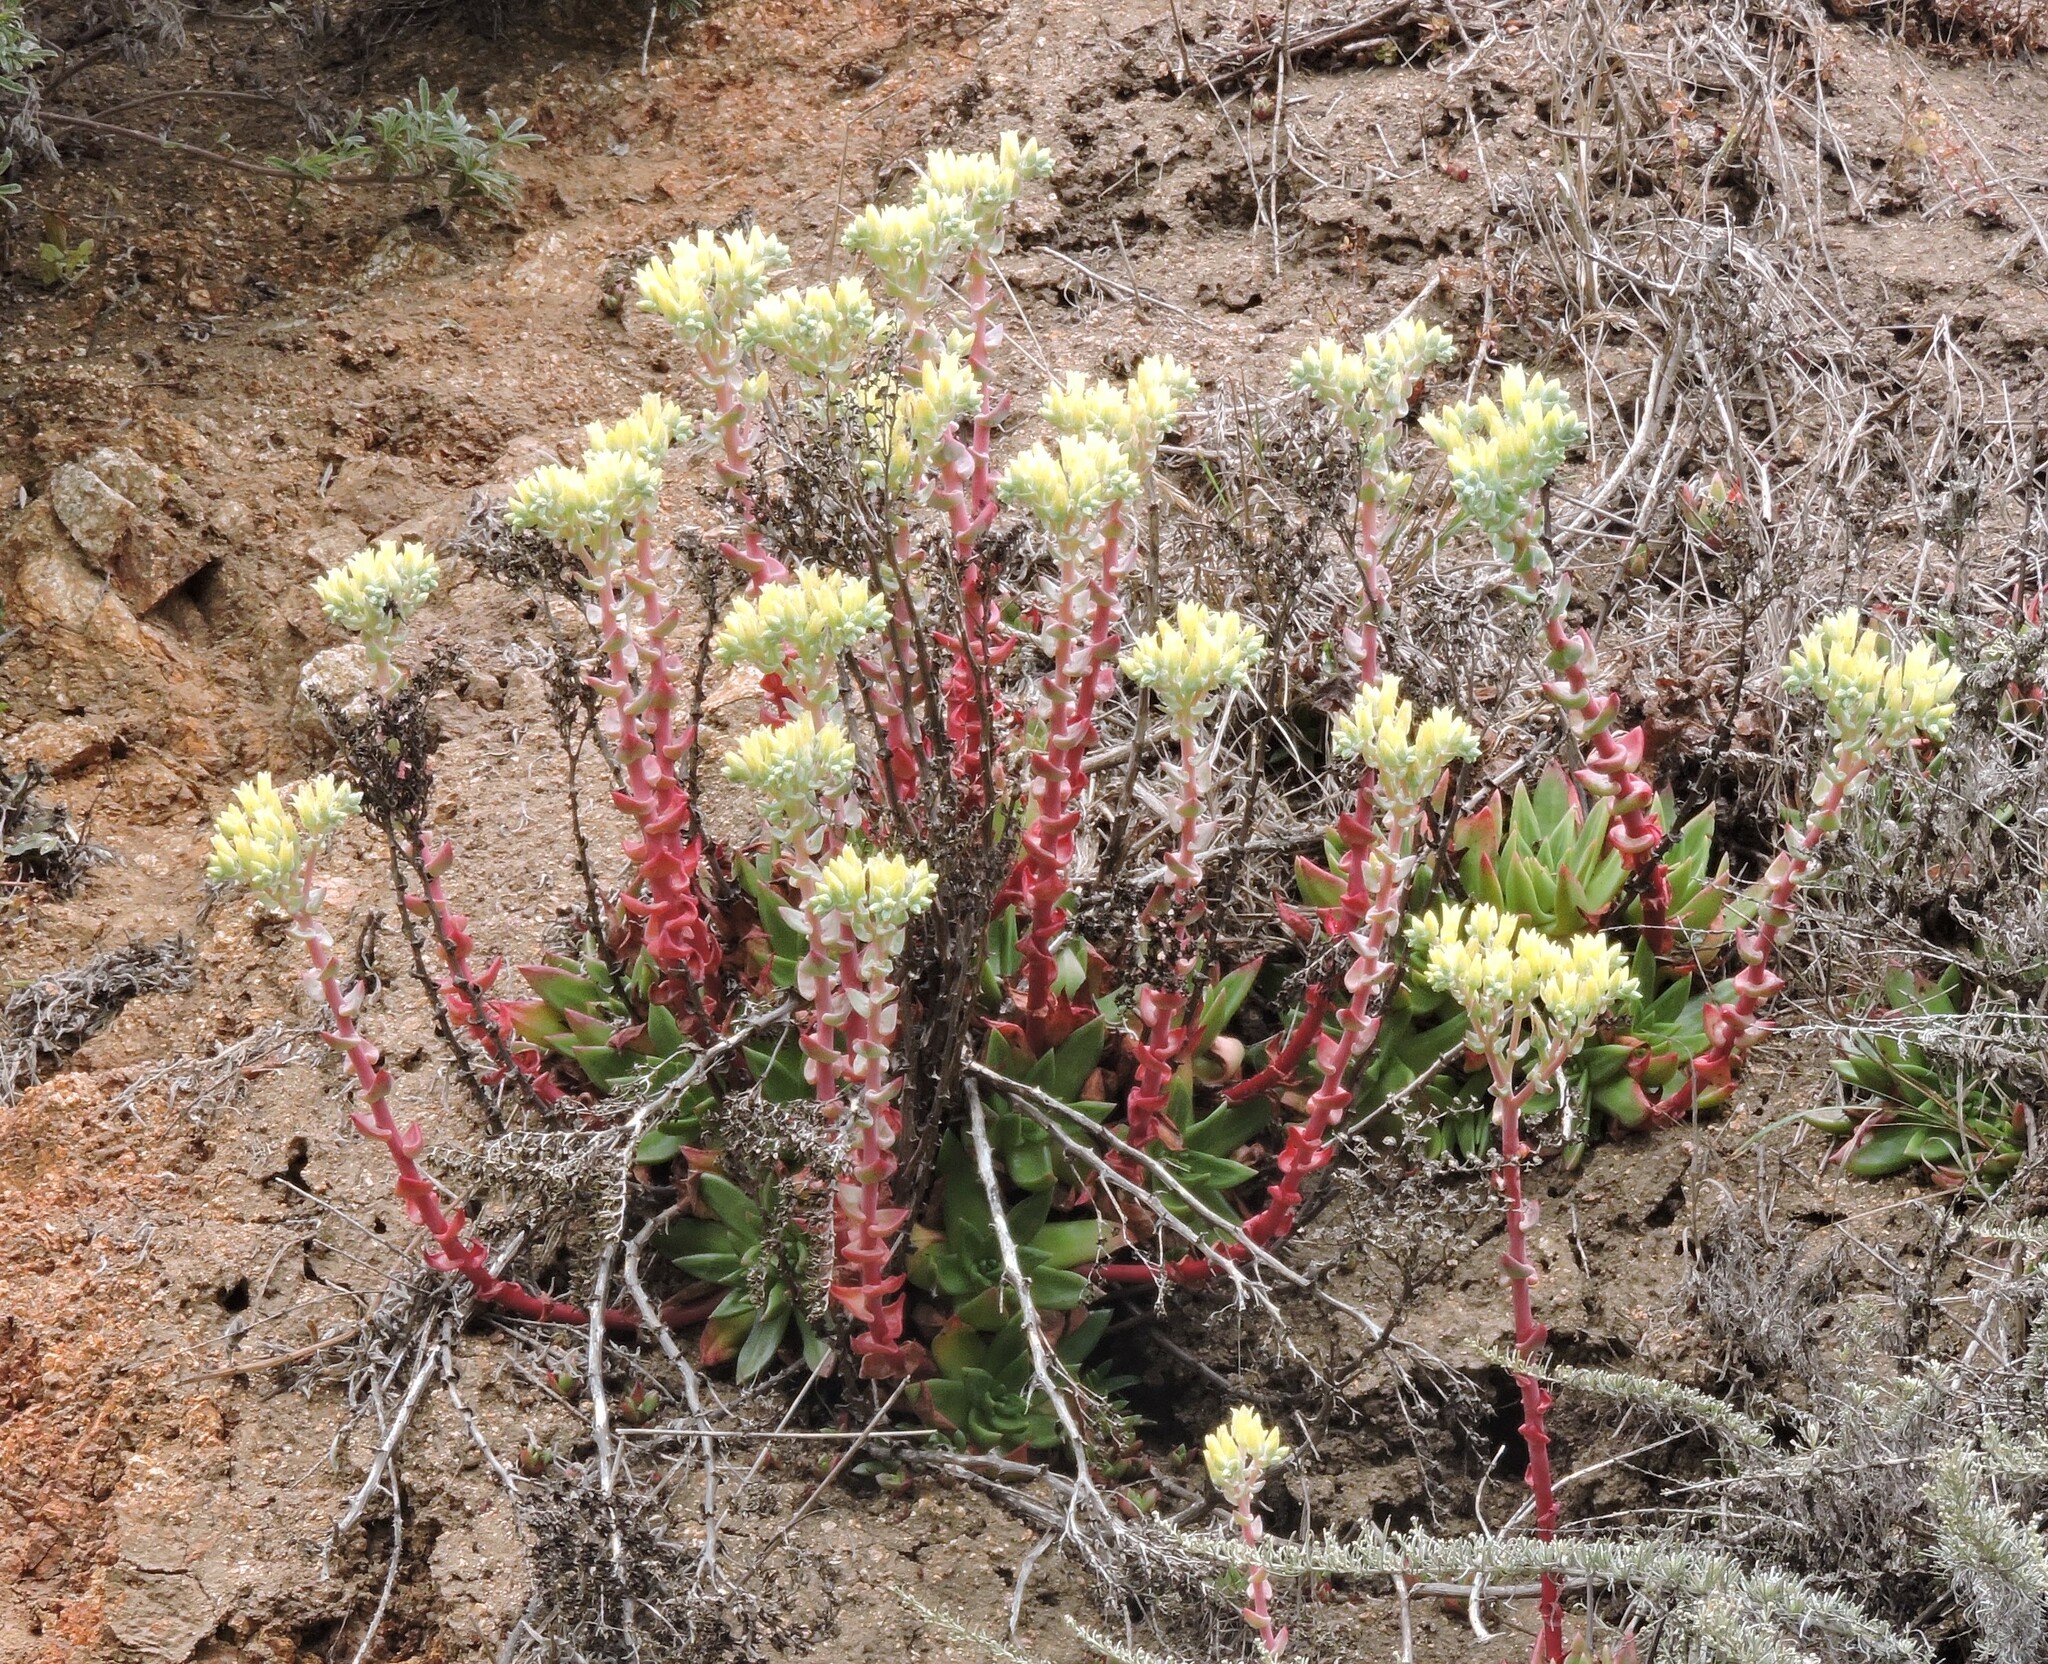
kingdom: Plantae
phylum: Tracheophyta
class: Magnoliopsida
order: Saxifragales
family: Crassulaceae
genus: Dudleya
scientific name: Dudleya farinosa
